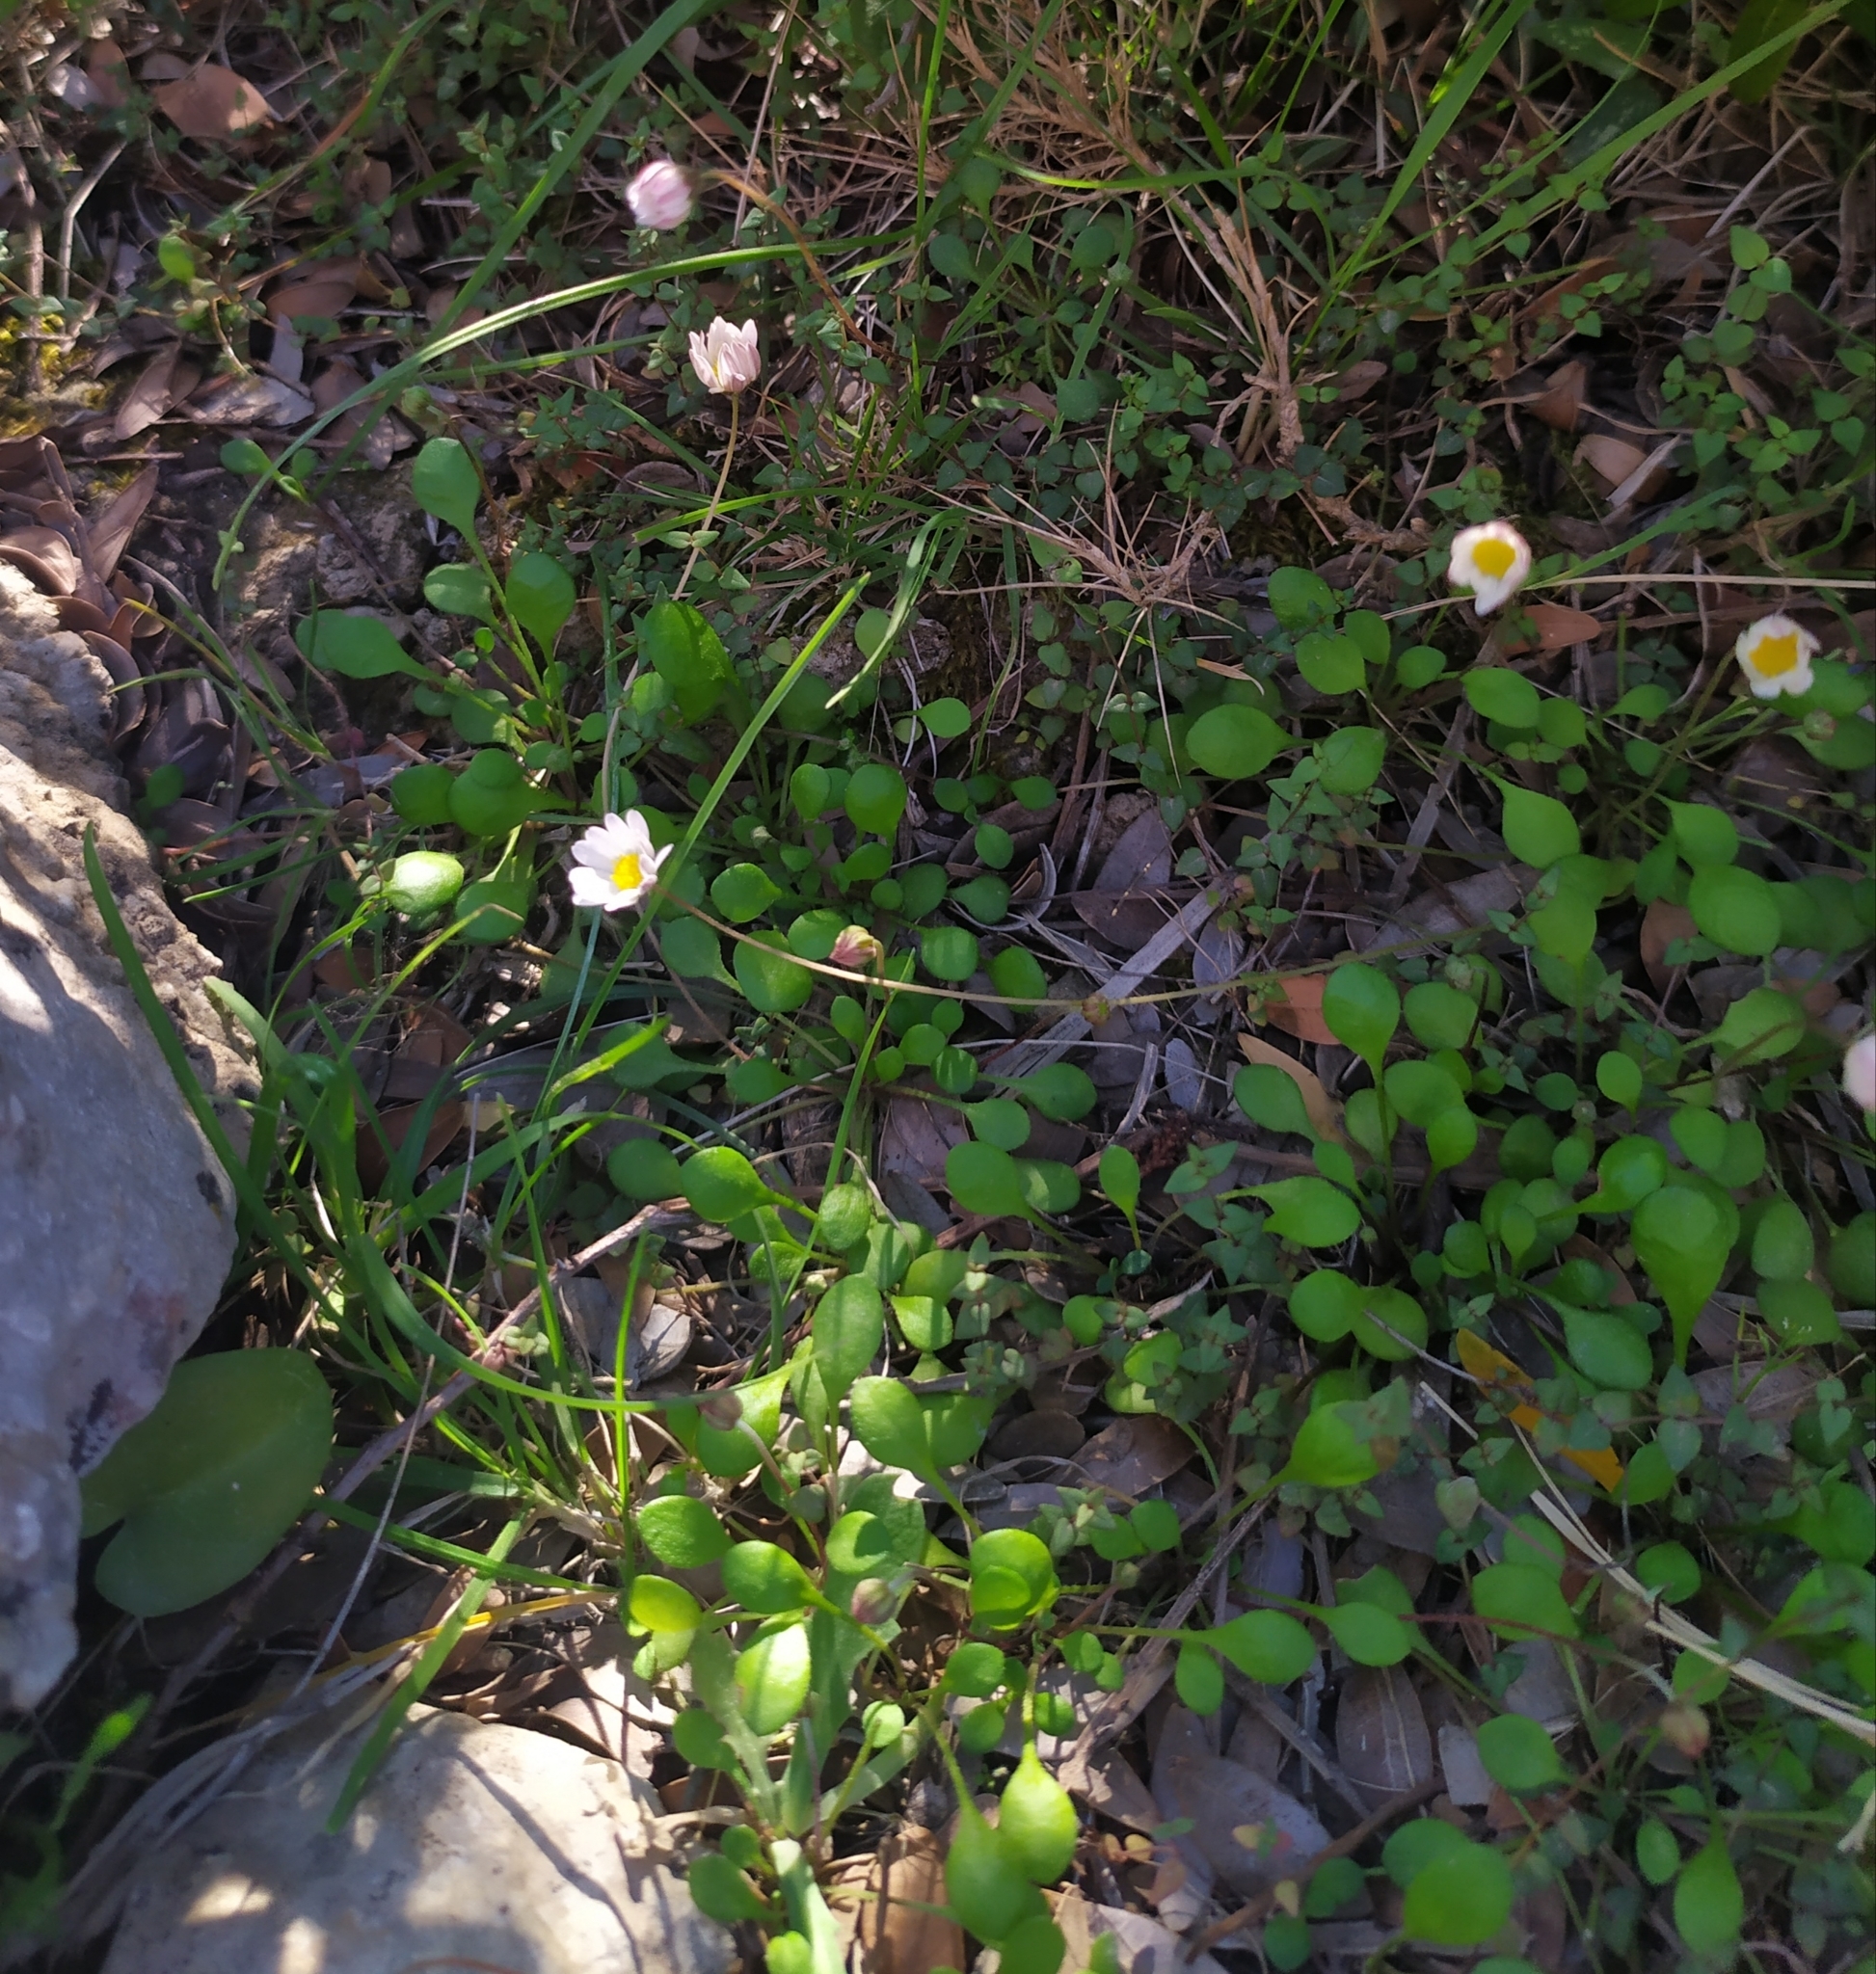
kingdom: Plantae
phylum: Tracheophyta
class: Magnoliopsida
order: Asterales
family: Asteraceae
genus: Bellium
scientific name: Bellium bellidioides
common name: False daisy
